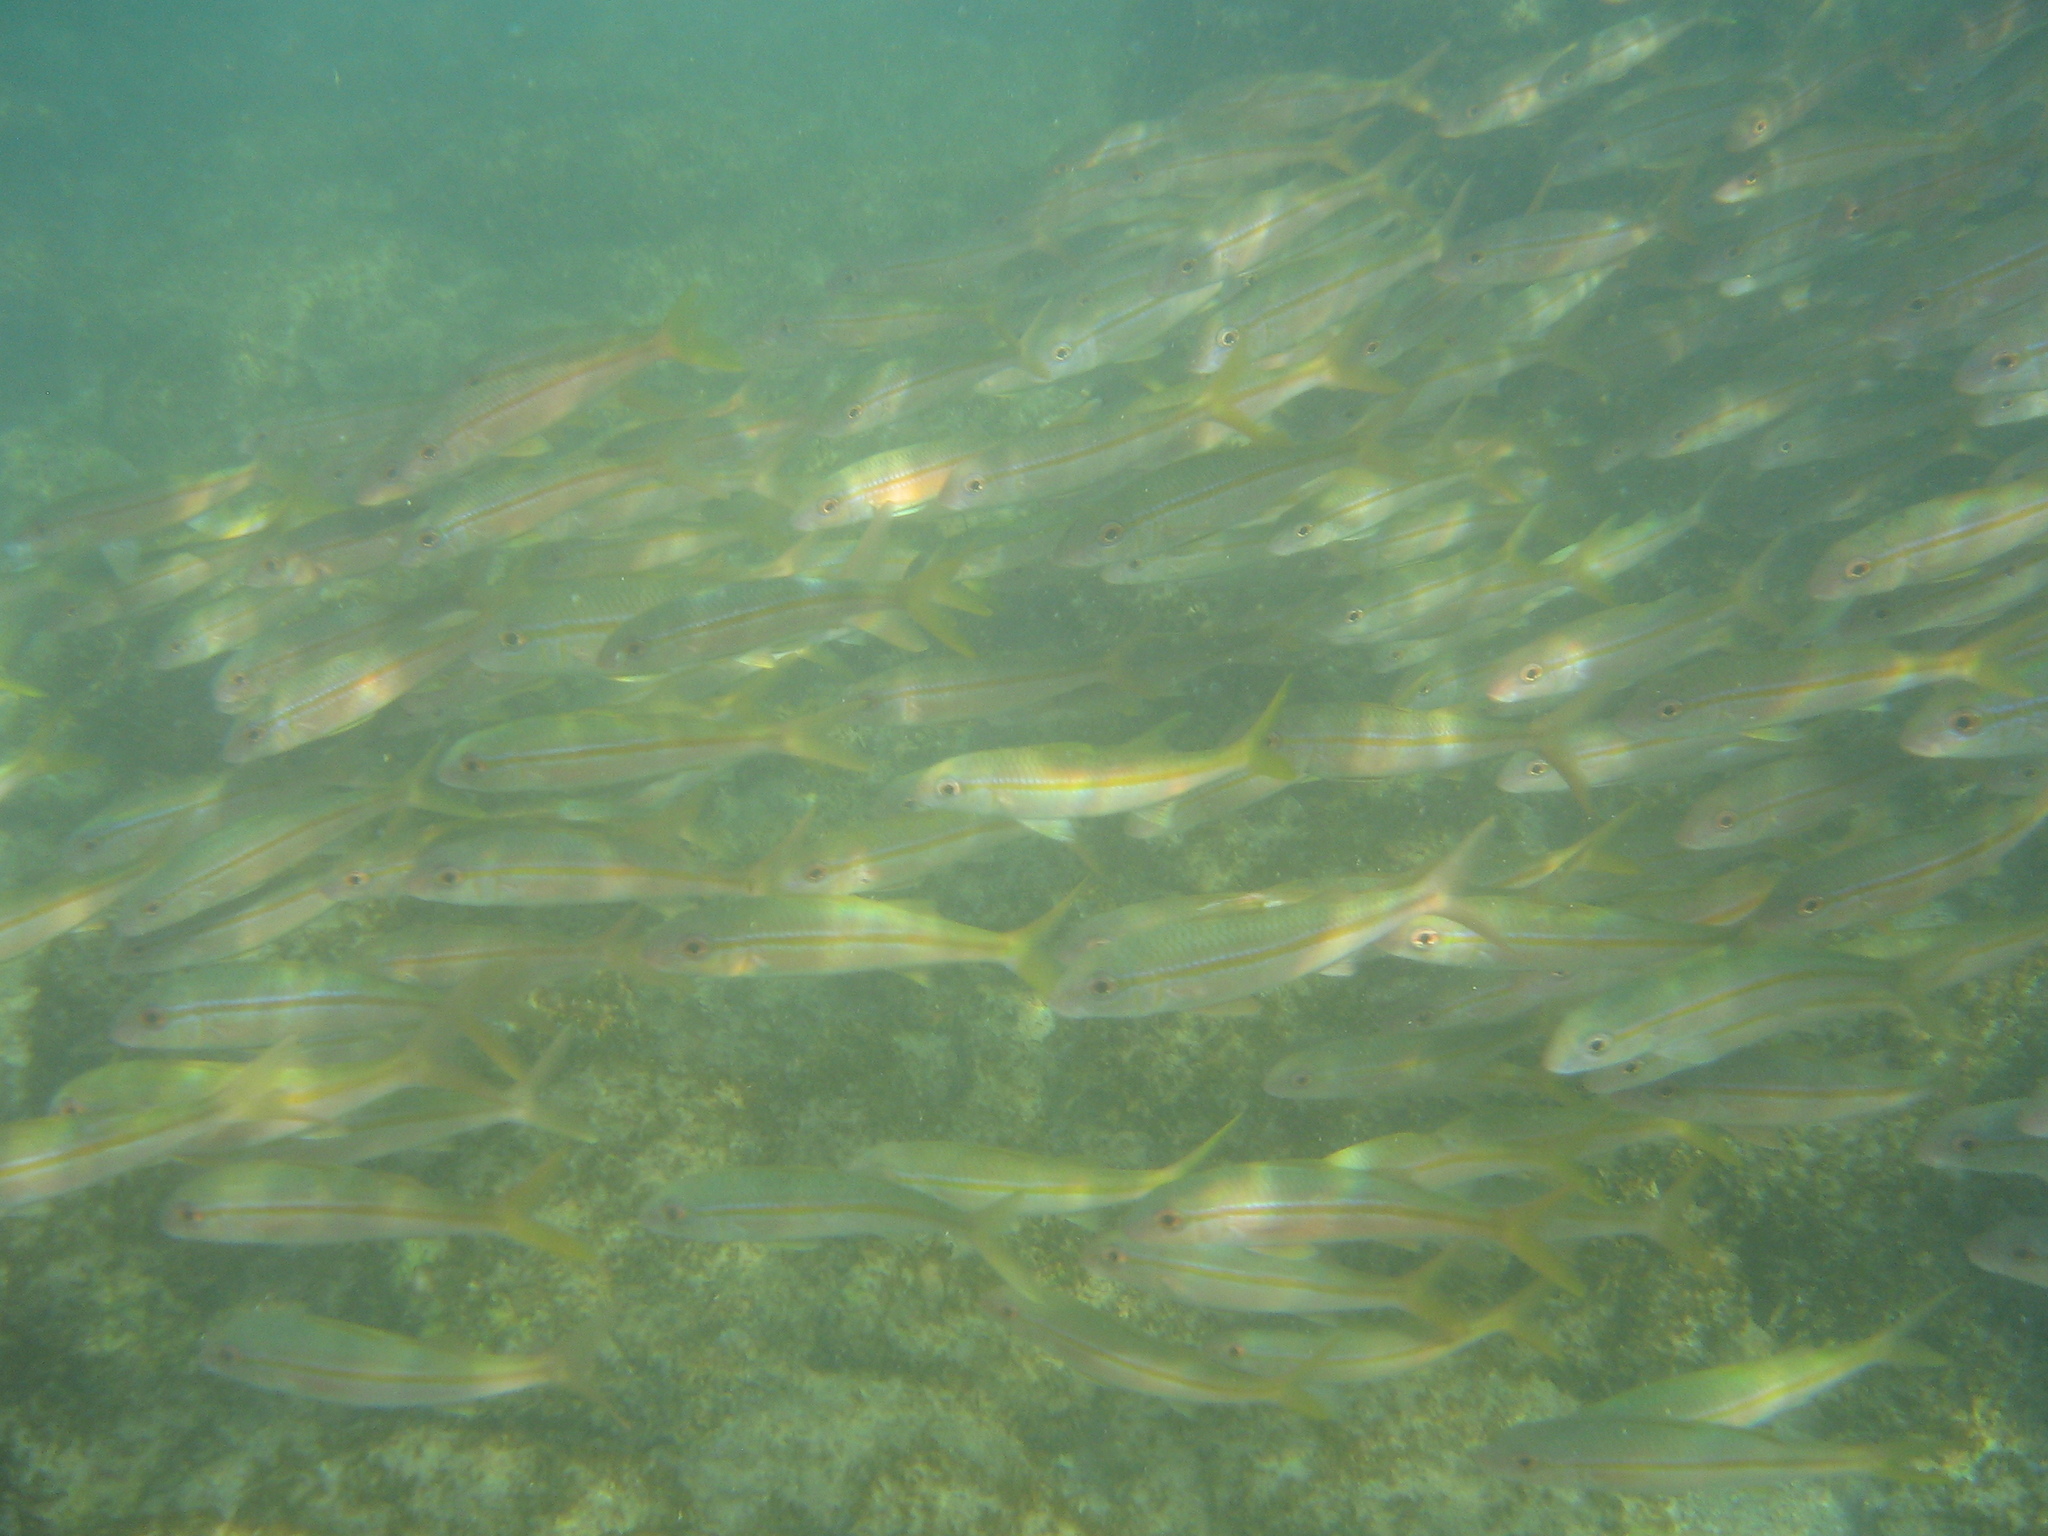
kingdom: Animalia
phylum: Chordata
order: Perciformes
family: Mullidae
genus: Mulloidichthys
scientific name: Mulloidichthys vanicolensis
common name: Yellowfin goatfish
